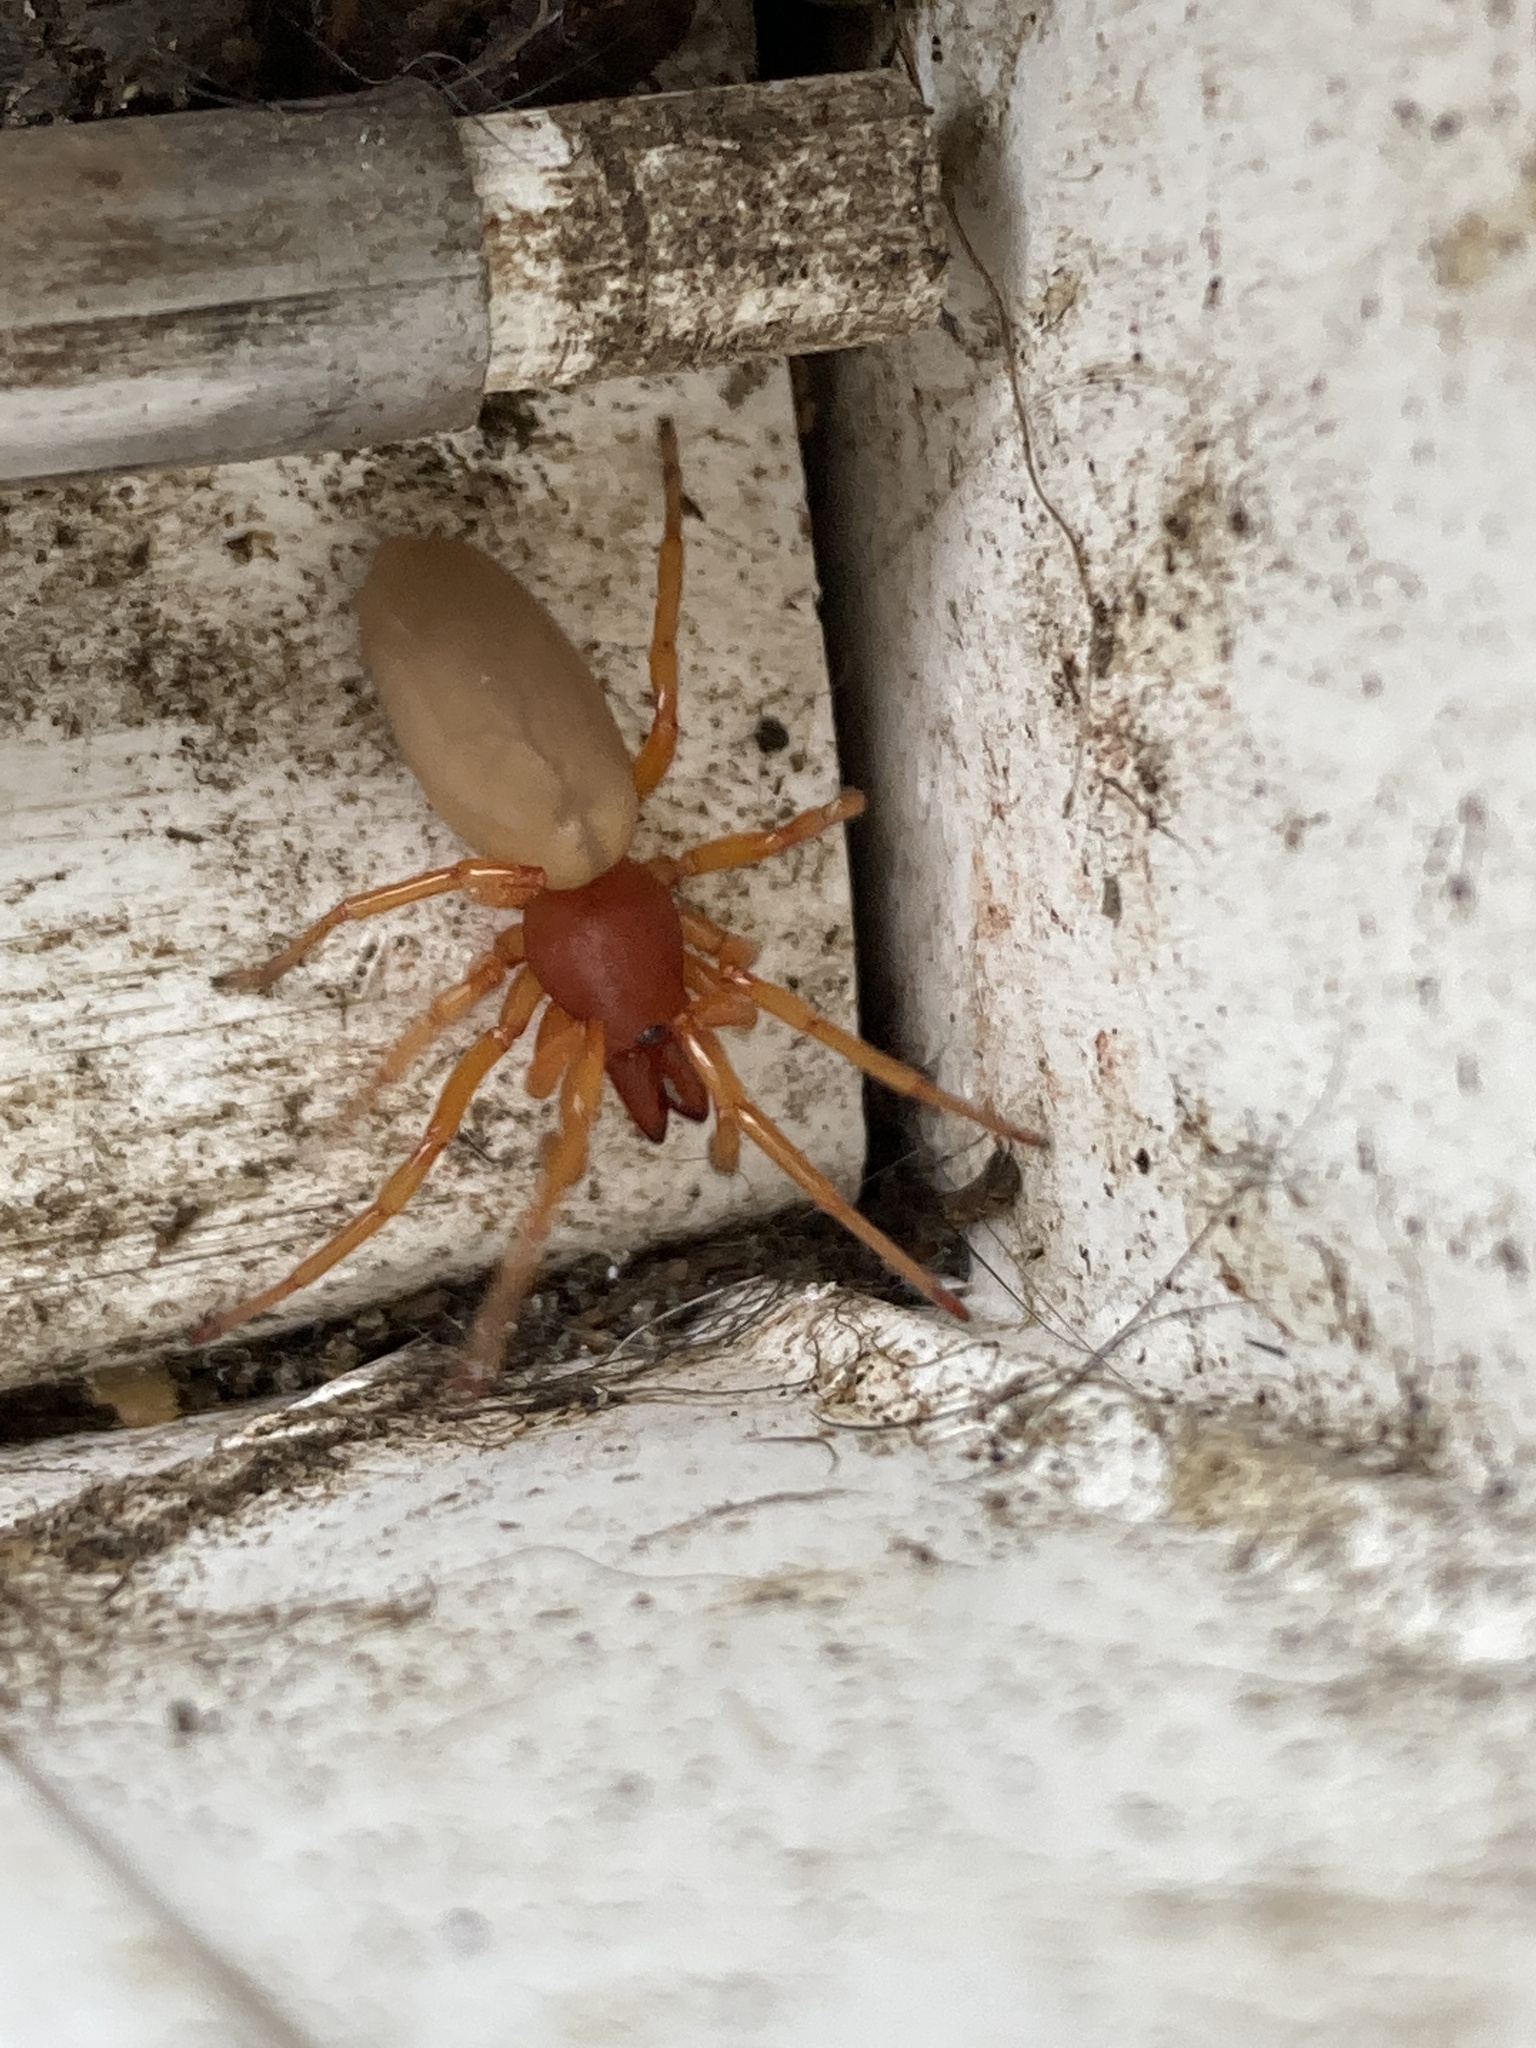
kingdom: Animalia
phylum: Arthropoda
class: Arachnida
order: Araneae
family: Dysderidae
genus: Dysdera
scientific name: Dysdera crocata
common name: Woodlouse spider
